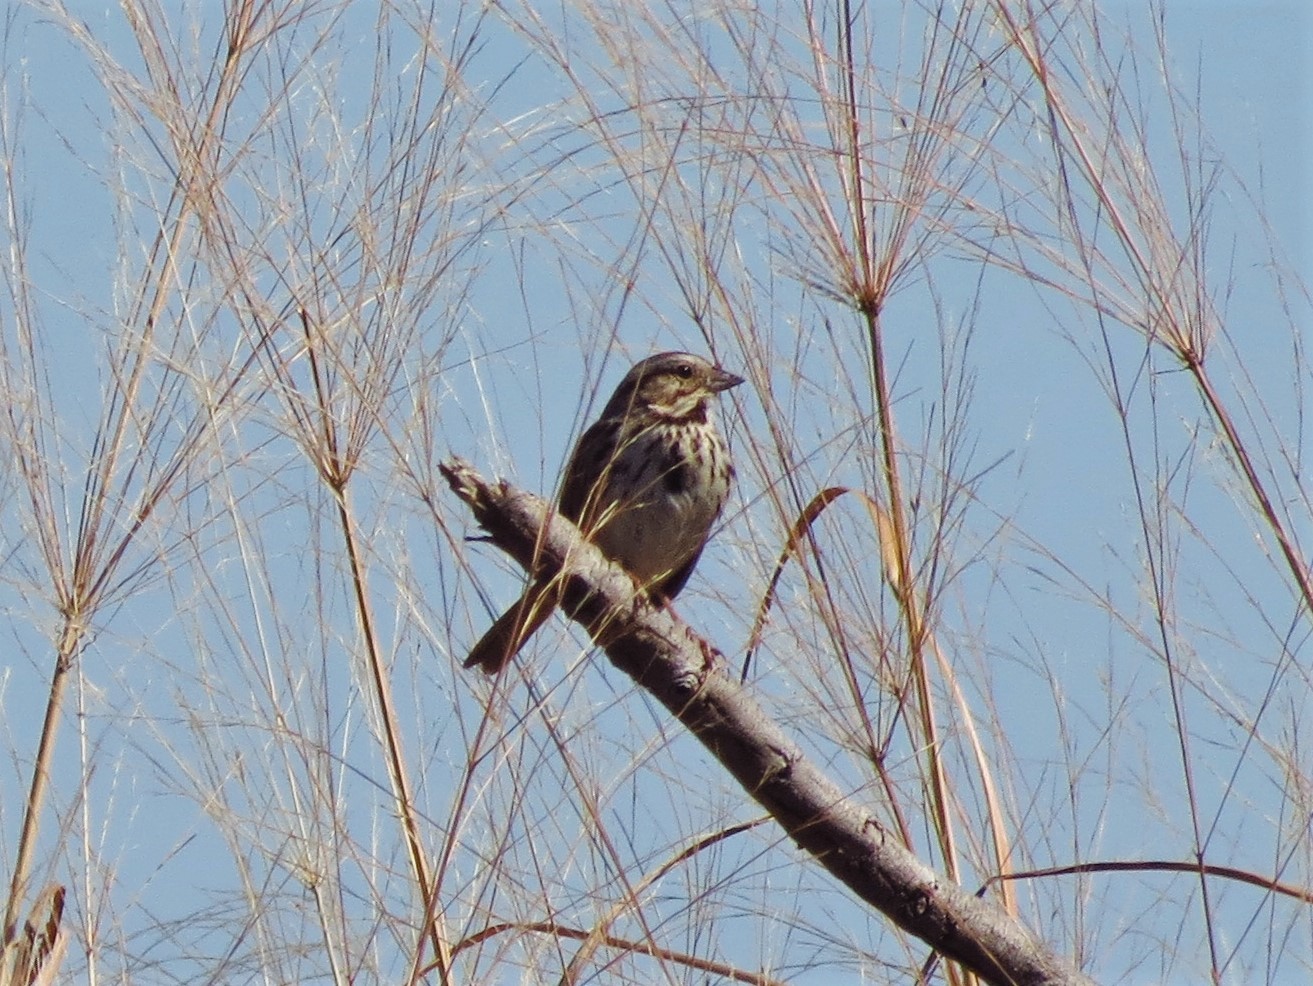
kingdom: Animalia
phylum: Chordata
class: Aves
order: Passeriformes
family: Passerellidae
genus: Melospiza
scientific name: Melospiza melodia
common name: Song sparrow
